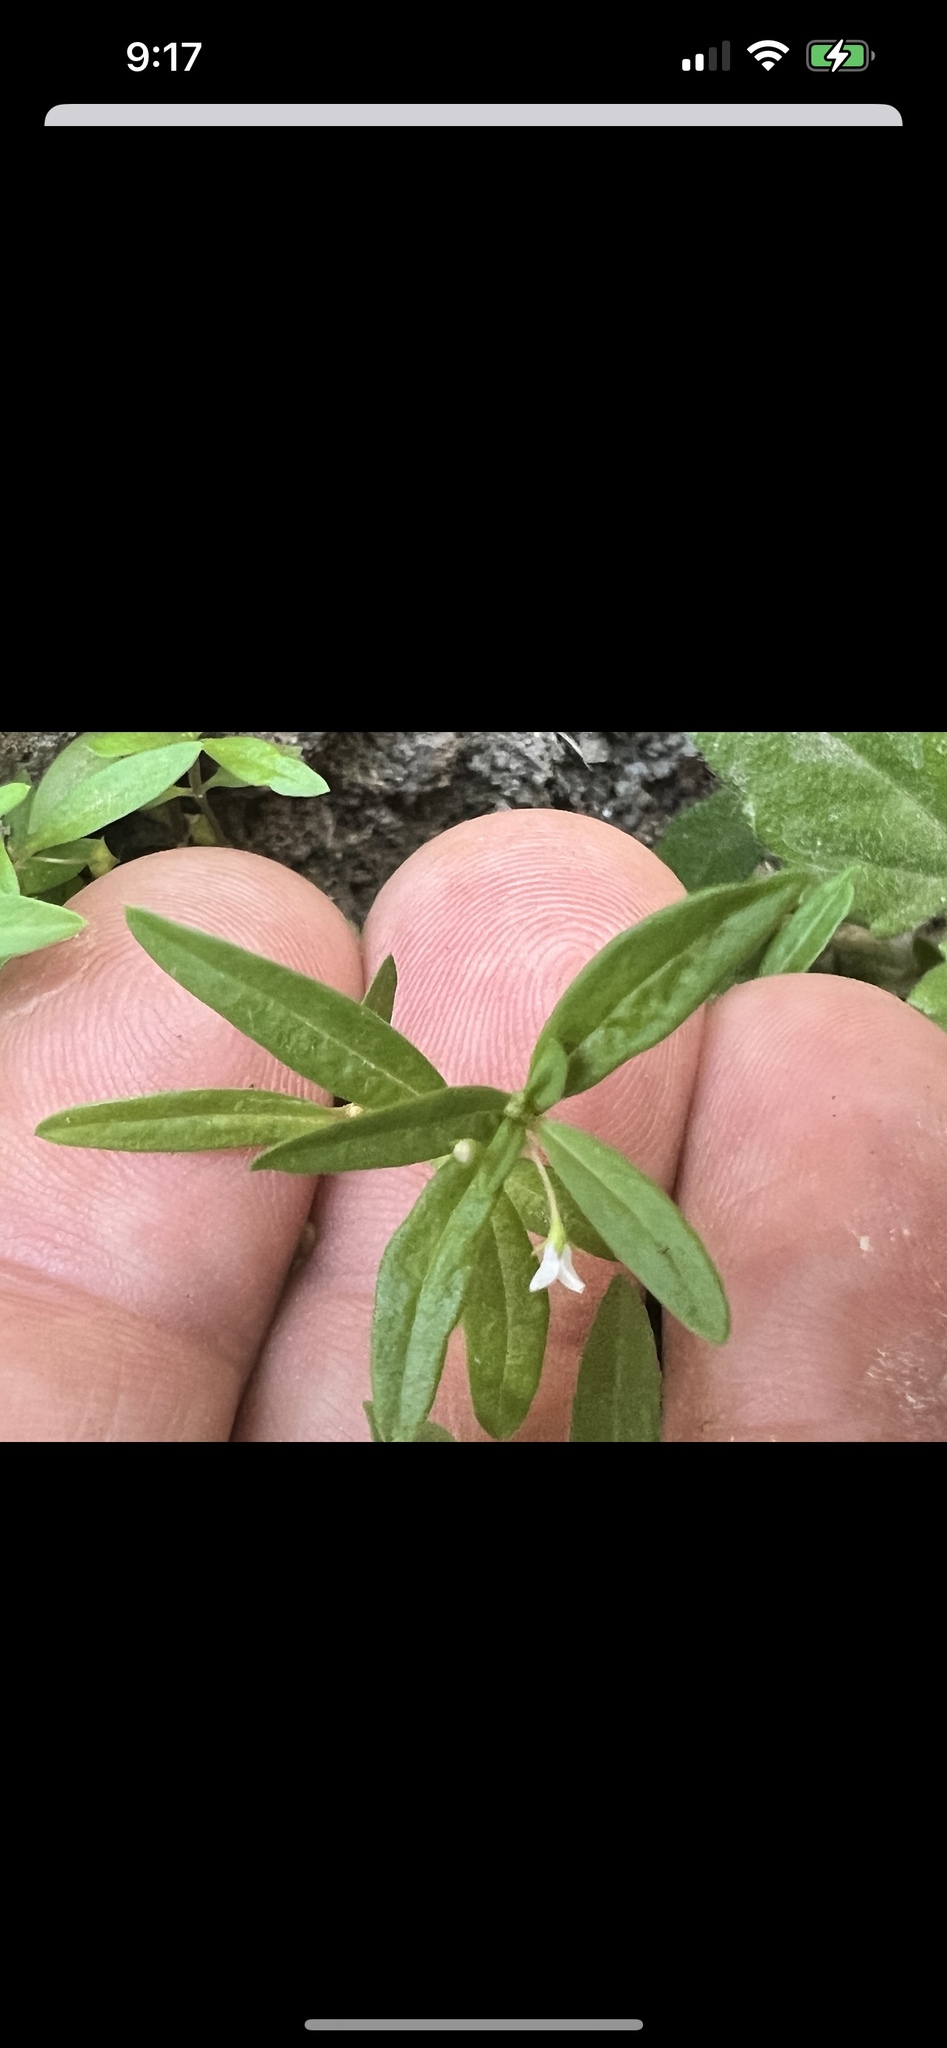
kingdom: Plantae
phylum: Tracheophyta
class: Magnoliopsida
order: Gentianales
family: Rubiaceae
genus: Oldenlandia
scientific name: Oldenlandia corymbosa
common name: Flat-top mille graines
